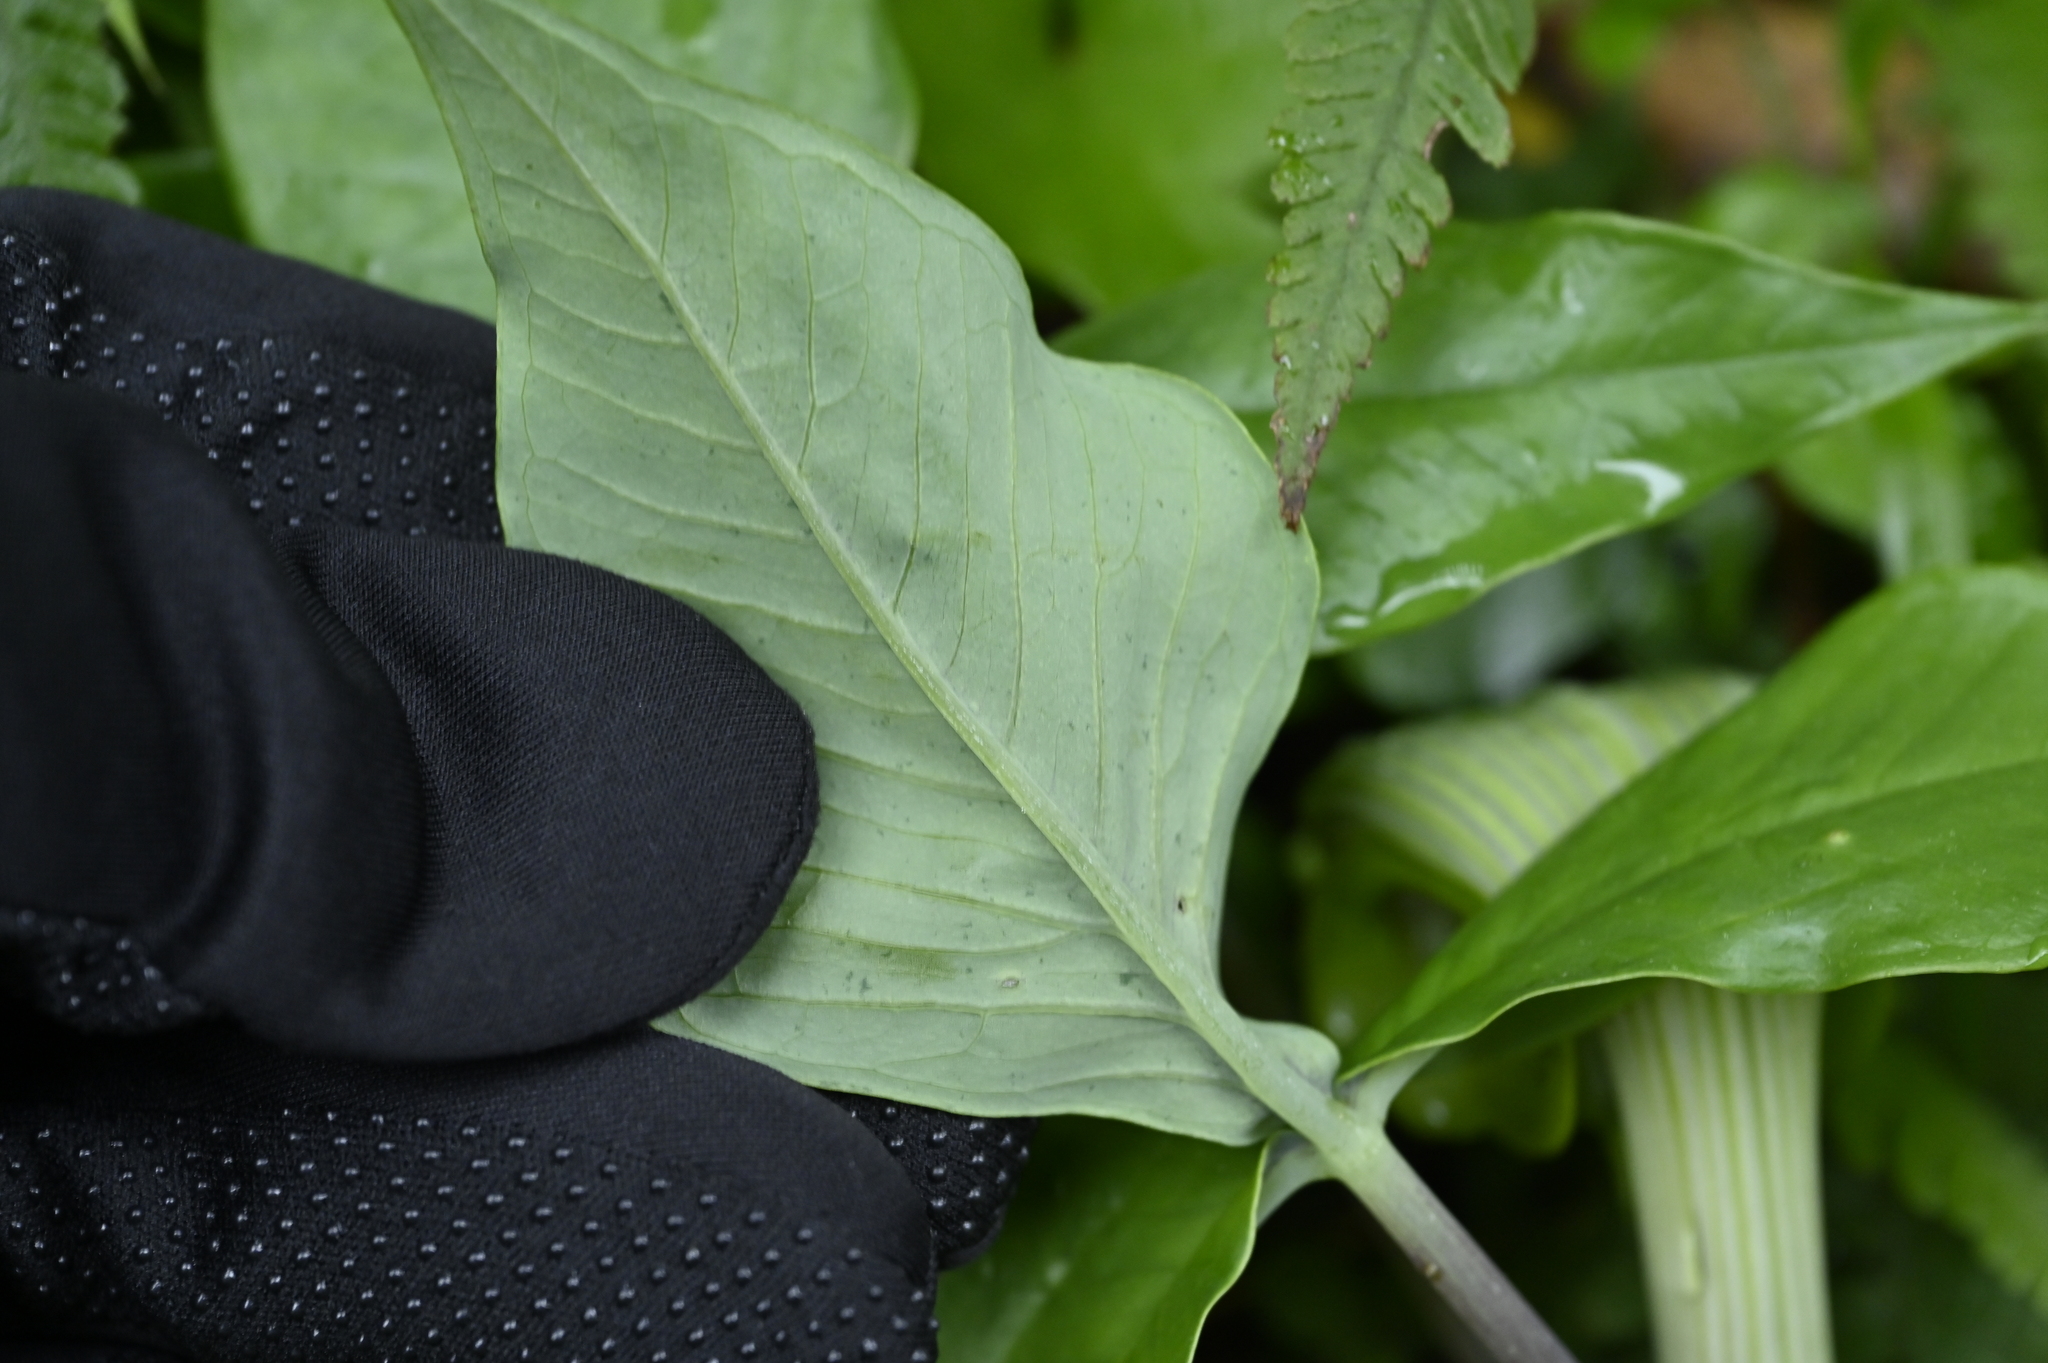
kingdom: Plantae
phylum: Tracheophyta
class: Liliopsida
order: Alismatales
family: Araceae
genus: Arisaema
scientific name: Arisaema ringens
